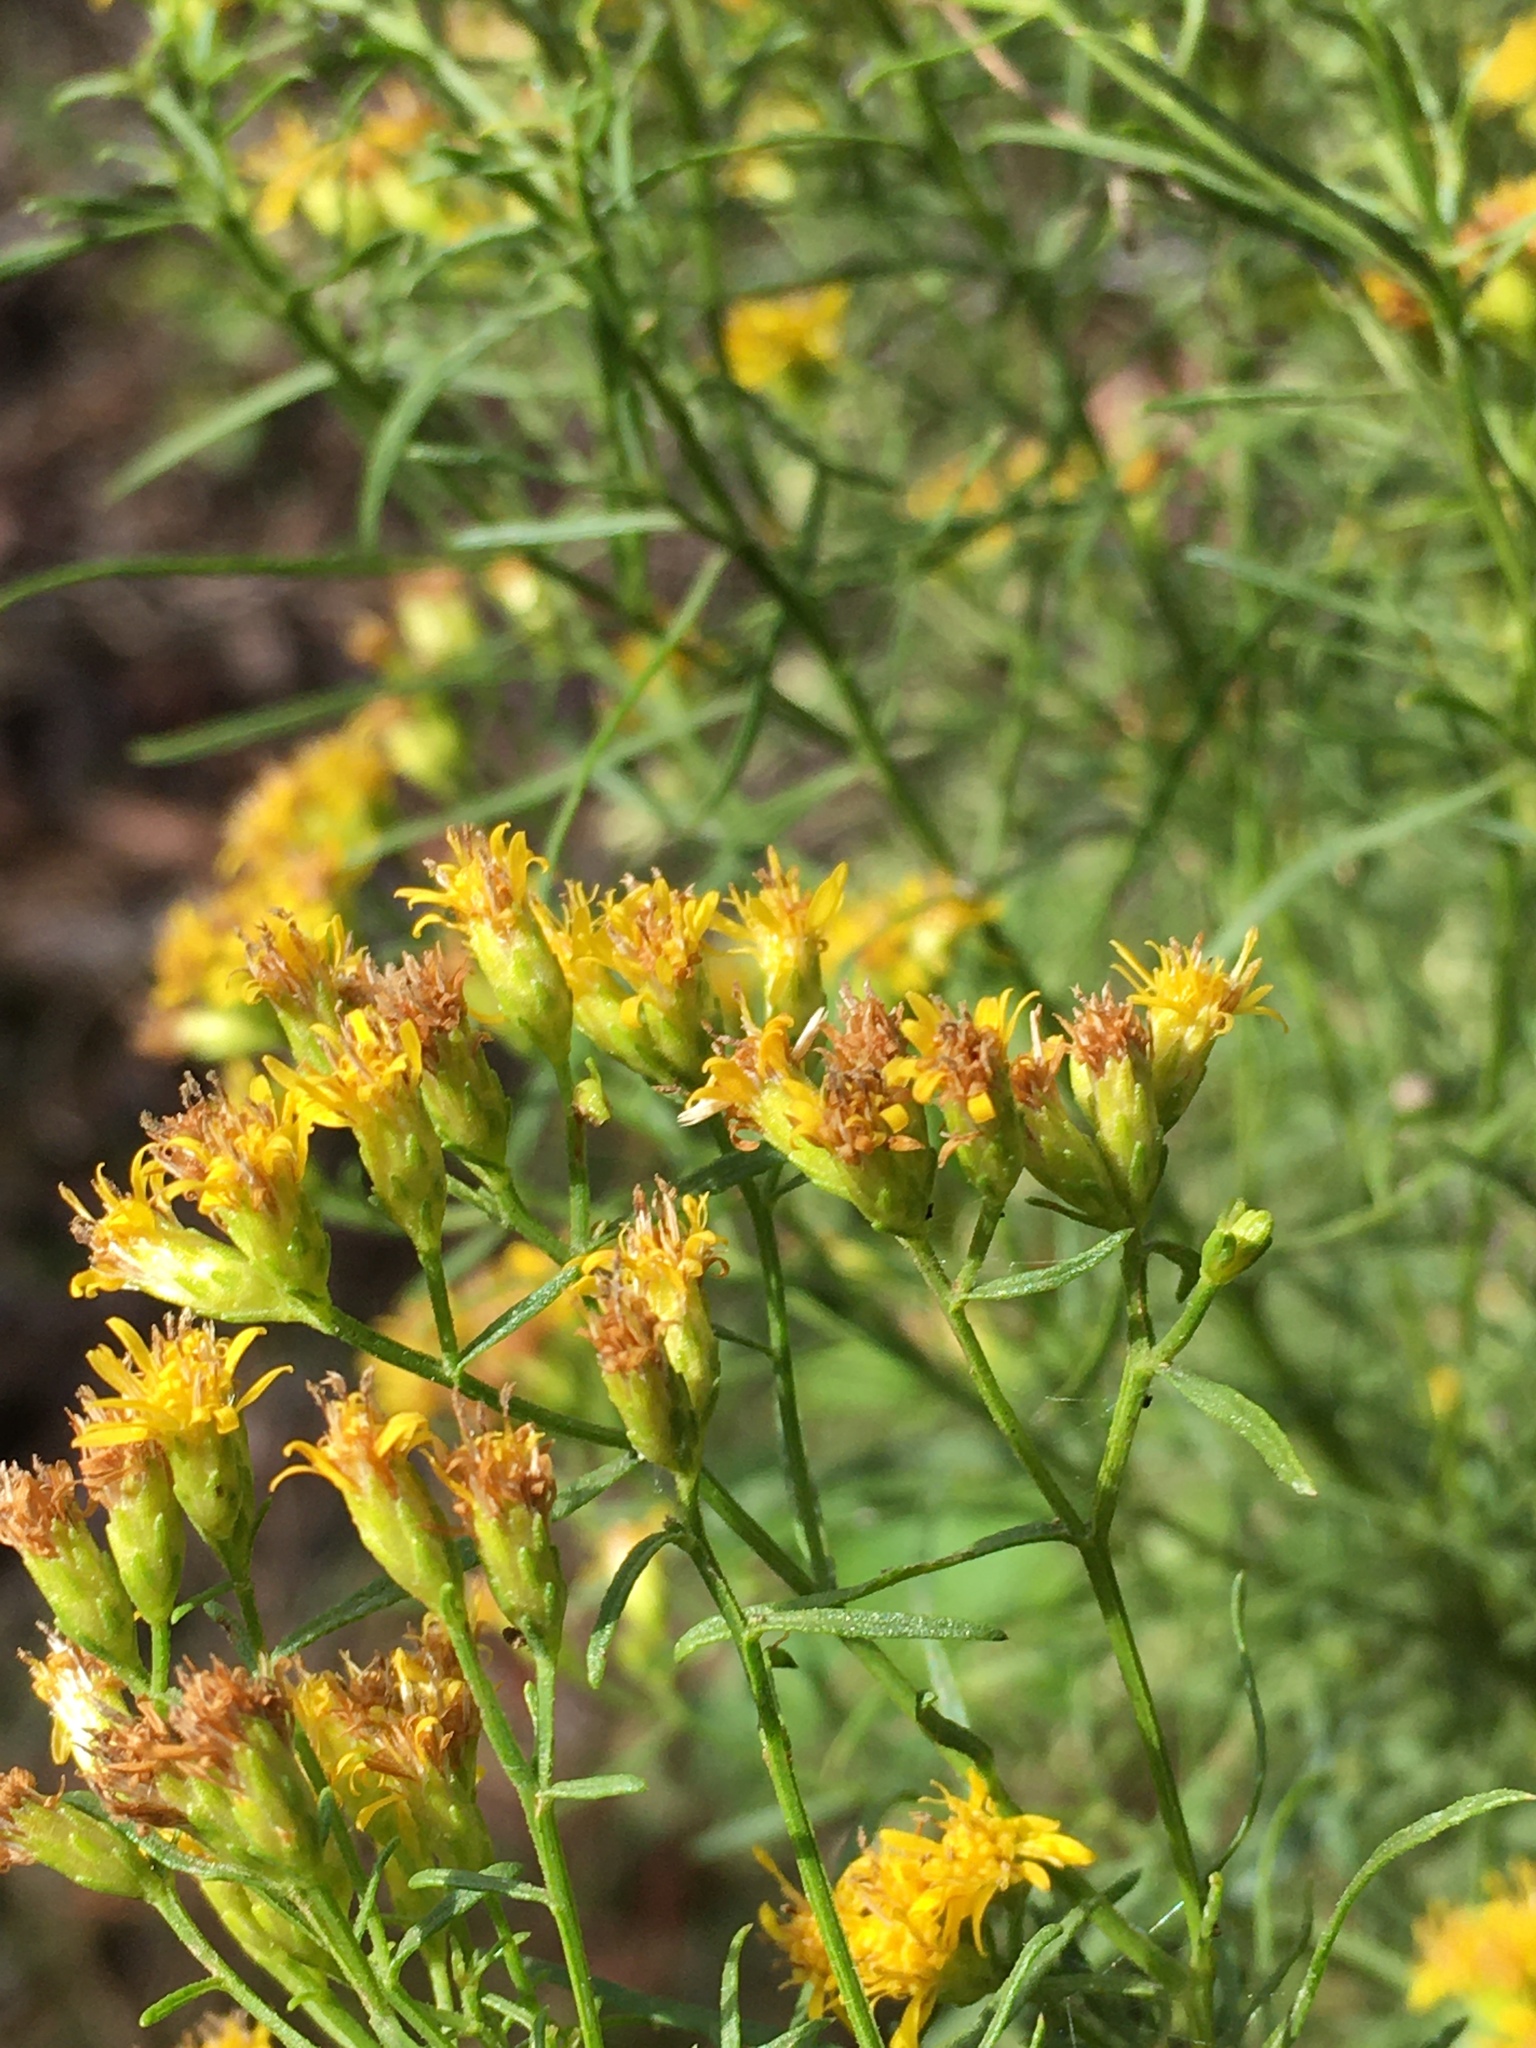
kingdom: Plantae
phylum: Tracheophyta
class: Magnoliopsida
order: Asterales
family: Asteraceae
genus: Euthamia
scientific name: Euthamia caroliniana
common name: Coastal plain goldentop
